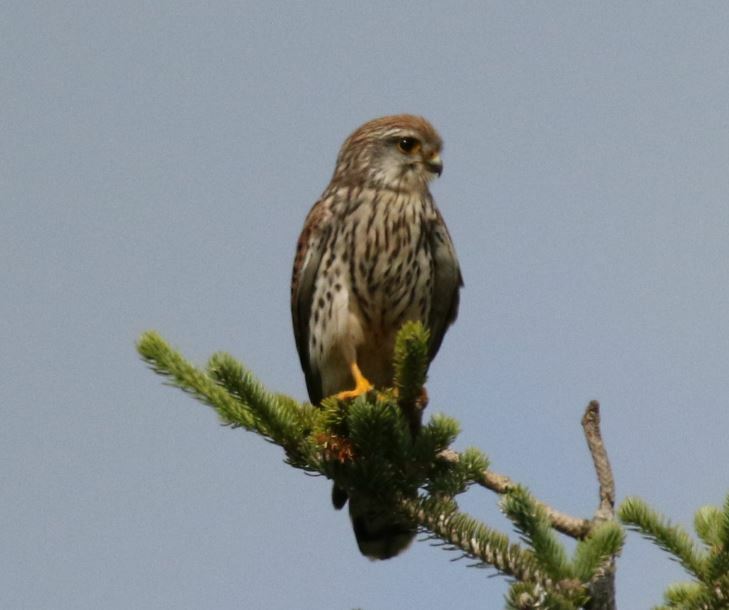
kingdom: Animalia
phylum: Chordata
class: Aves
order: Falconiformes
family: Falconidae
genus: Falco
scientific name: Falco tinnunculus
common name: Common kestrel
